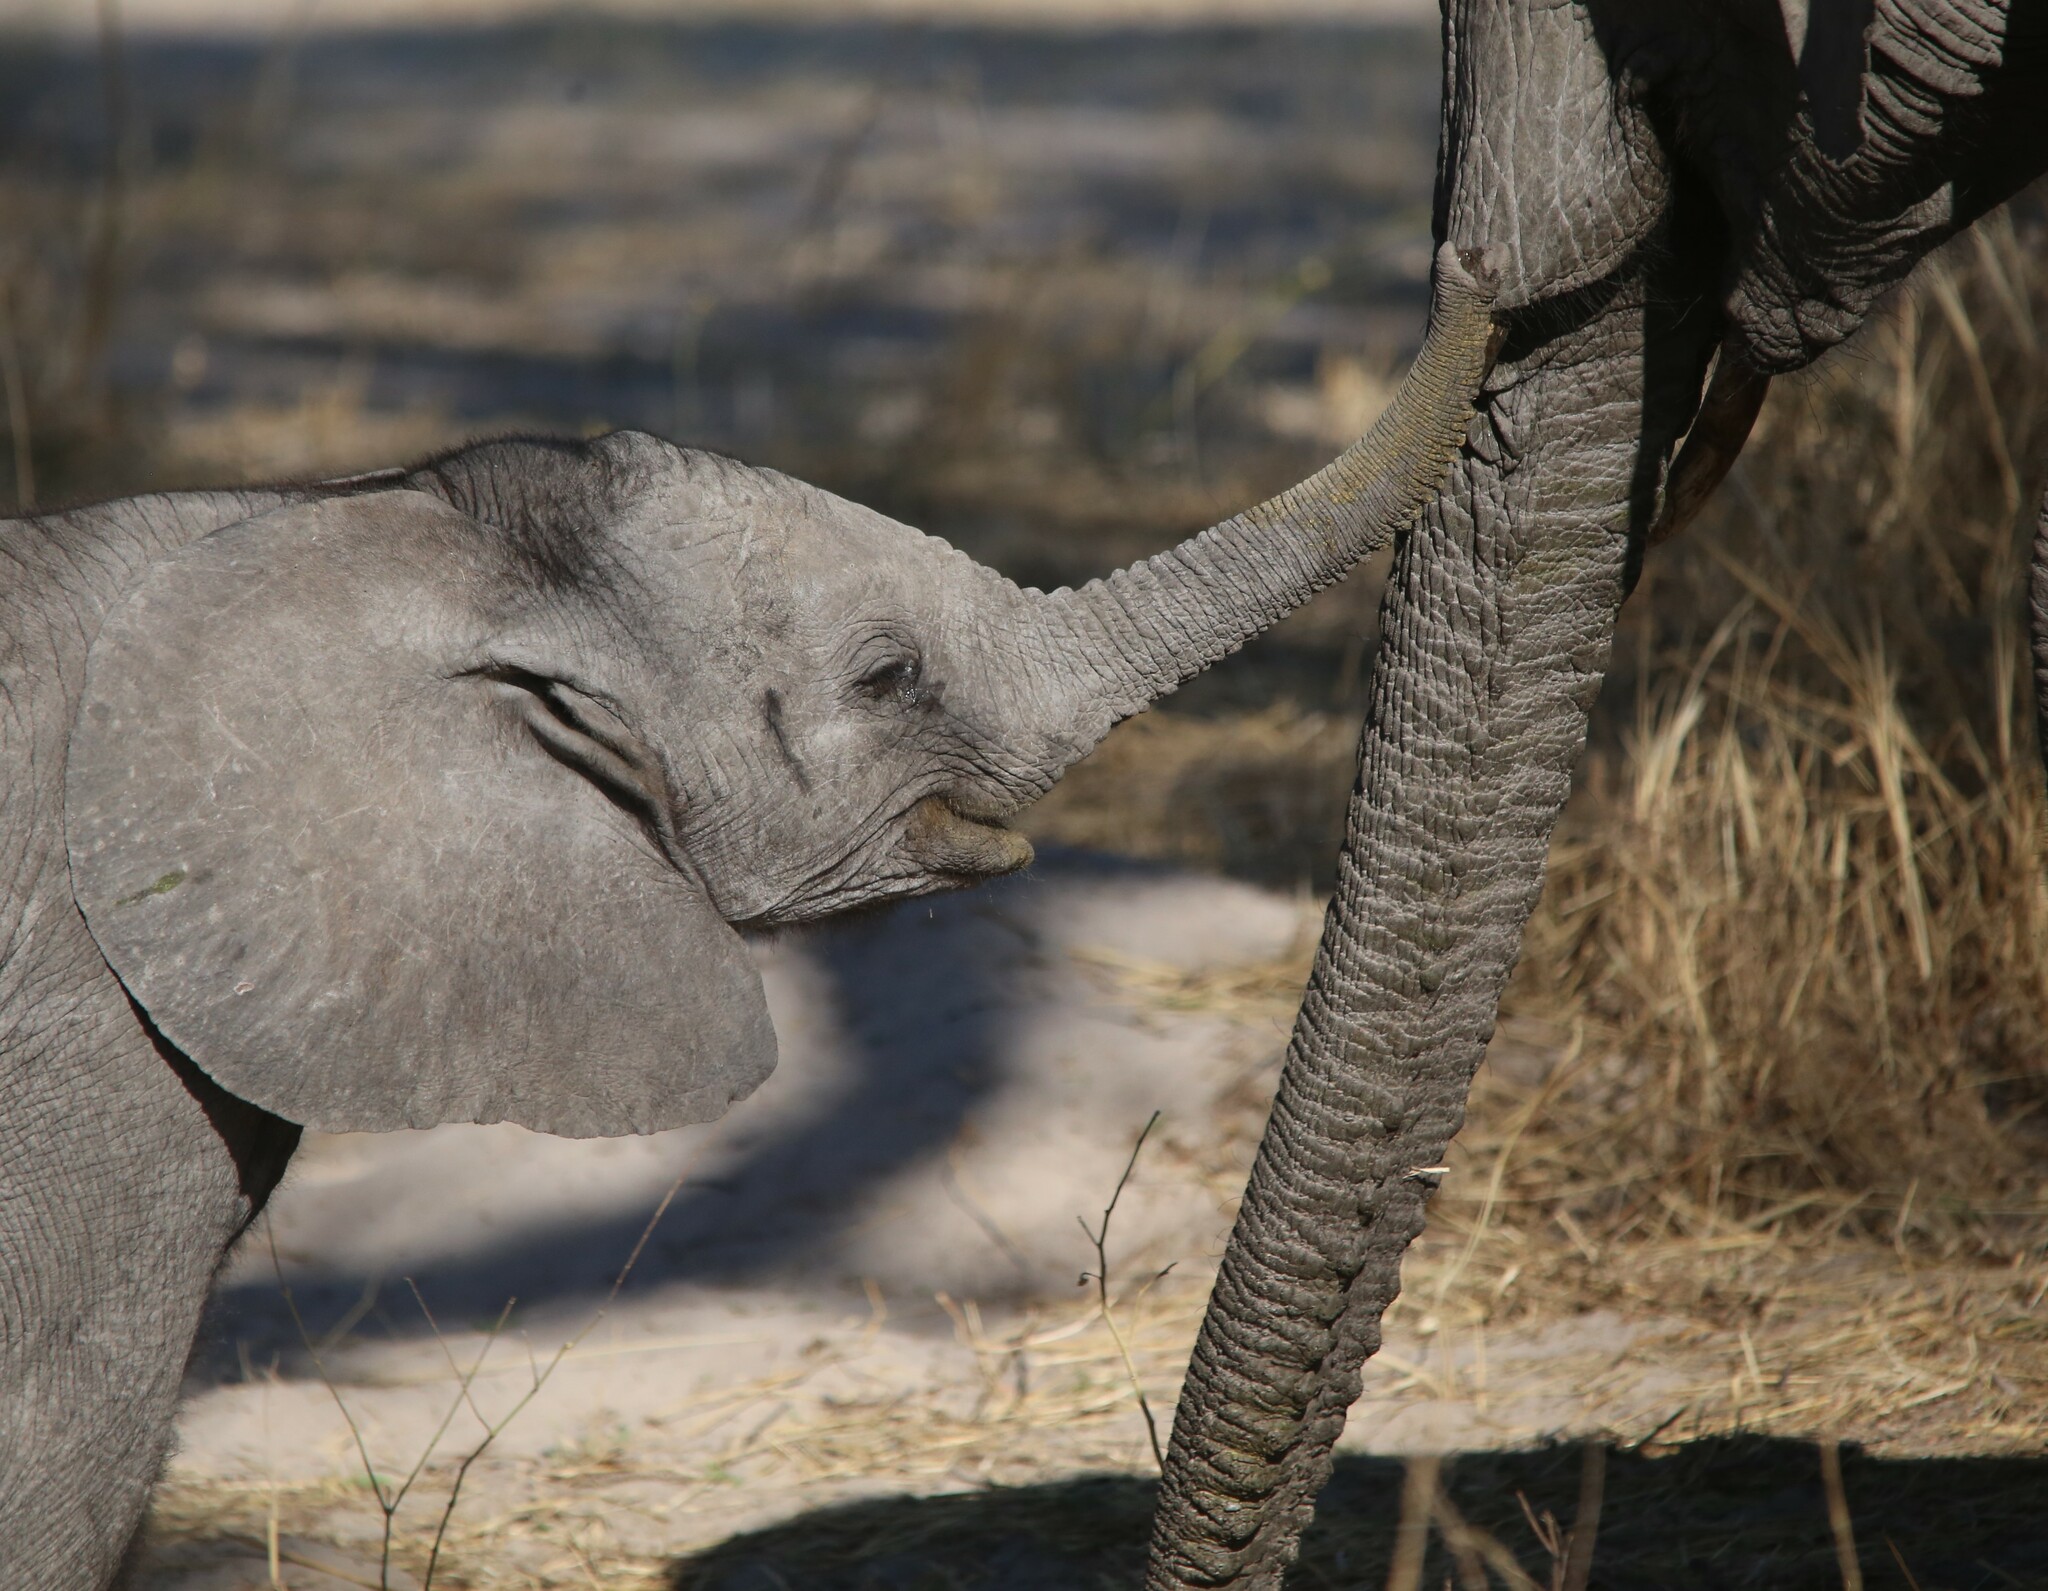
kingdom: Animalia
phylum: Chordata
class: Mammalia
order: Proboscidea
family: Elephantidae
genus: Loxodonta
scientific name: Loxodonta africana
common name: African elephant
